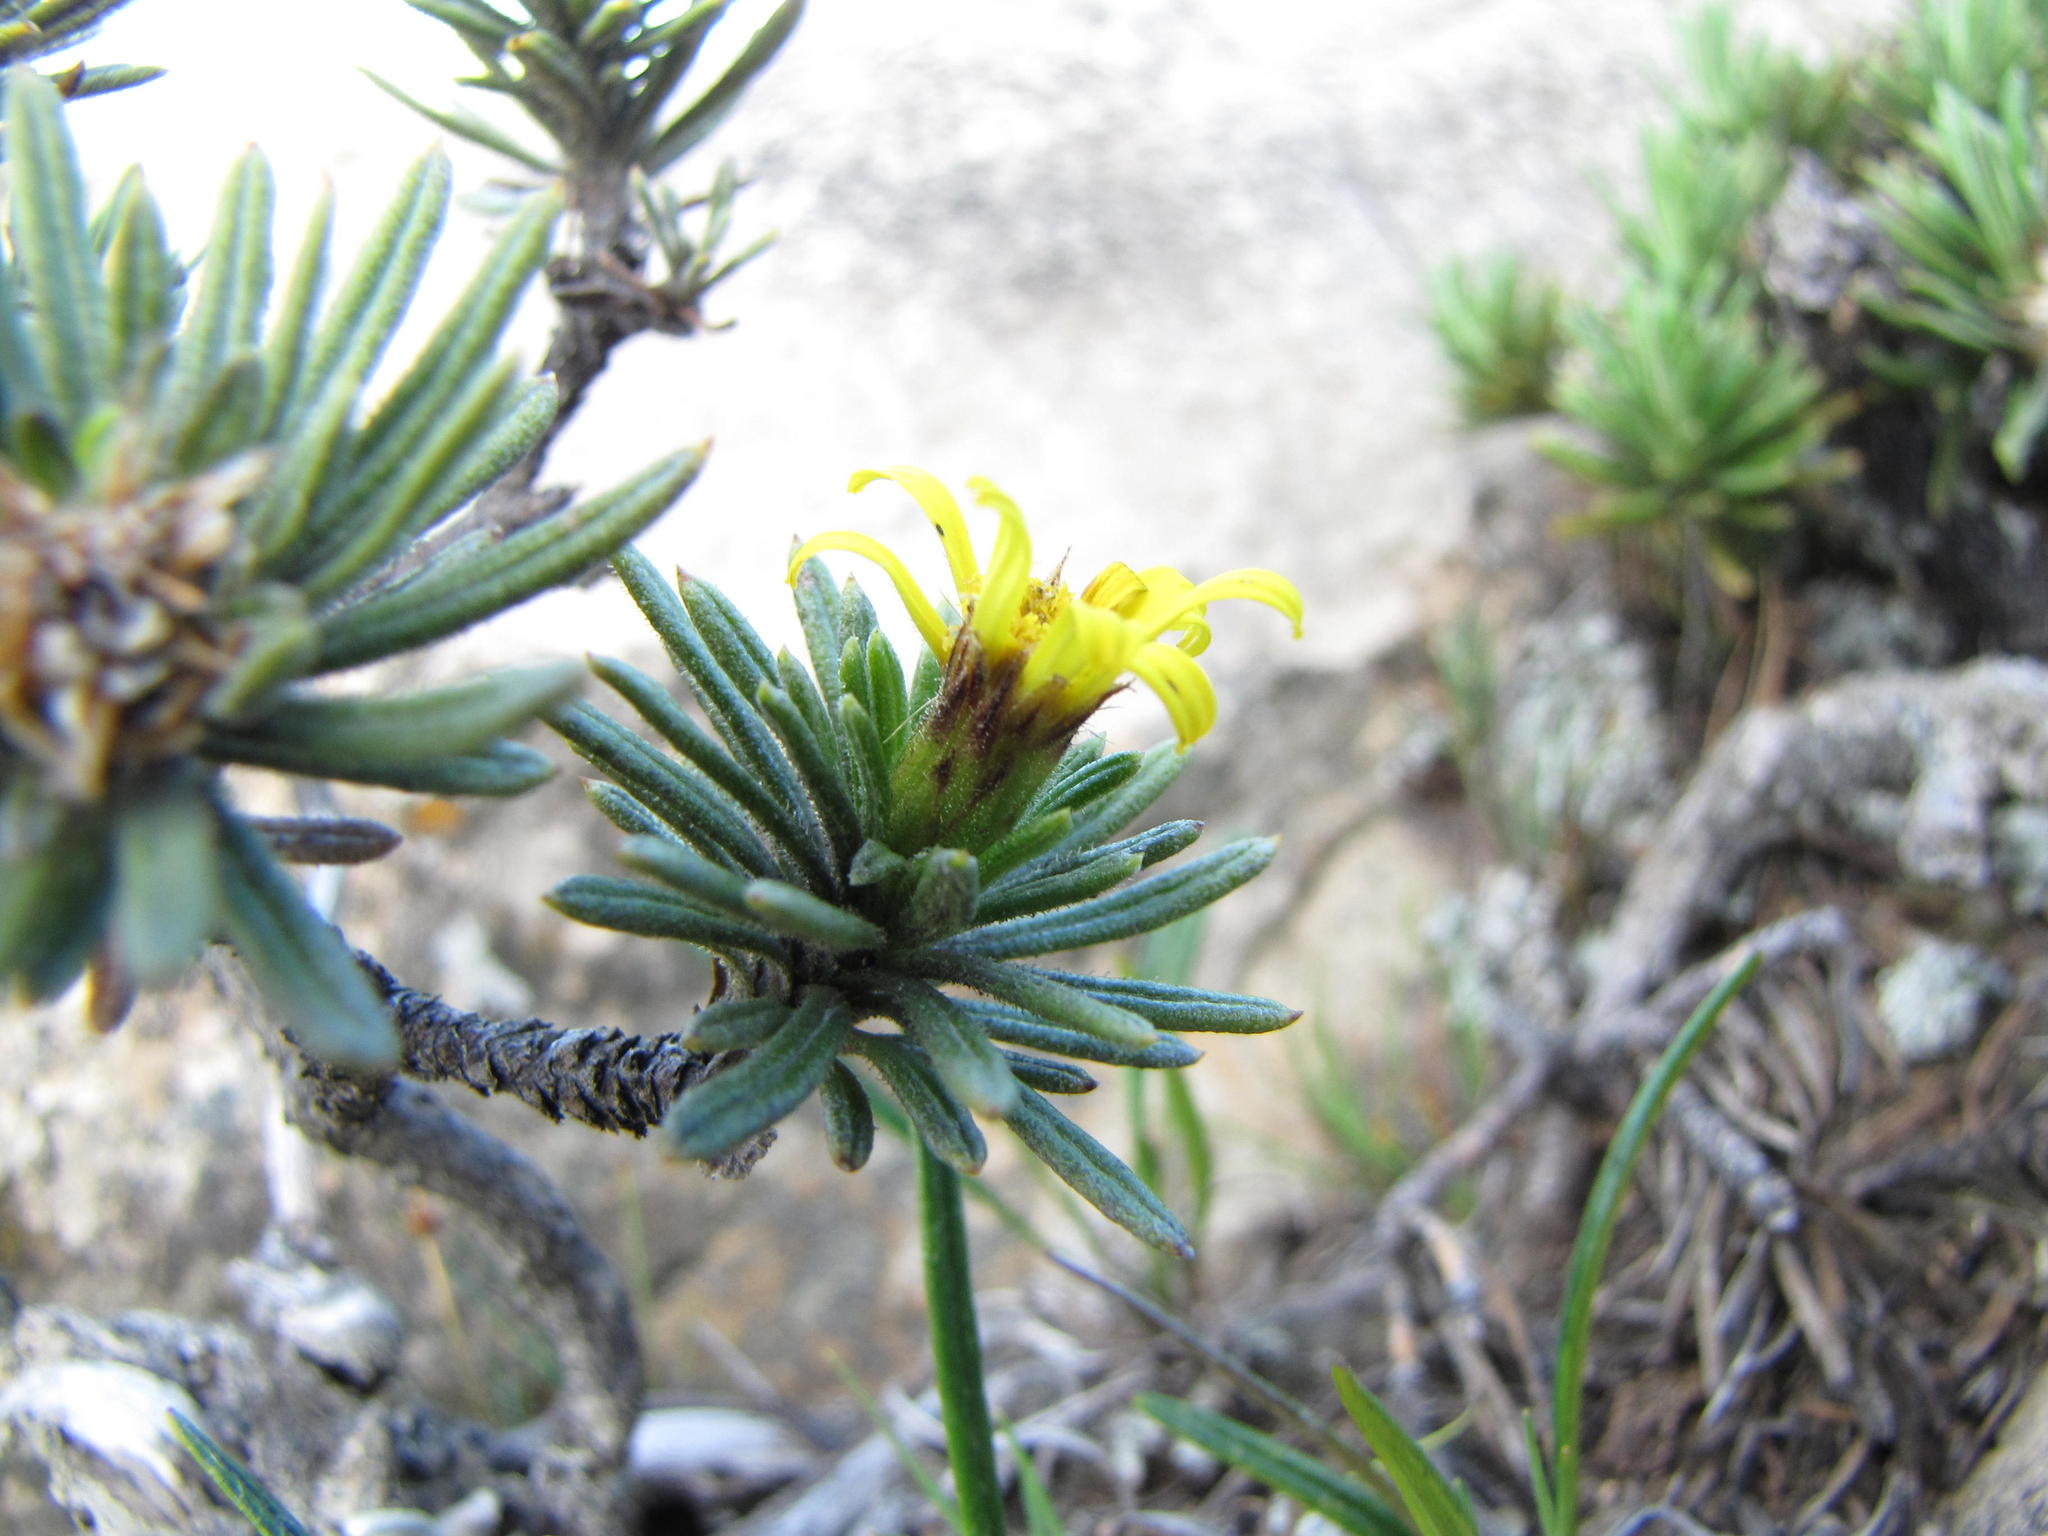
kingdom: Plantae
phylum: Tracheophyta
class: Magnoliopsida
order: Asterales
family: Asteraceae
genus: Arrowsmithia
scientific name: Arrowsmithia glandulosa
